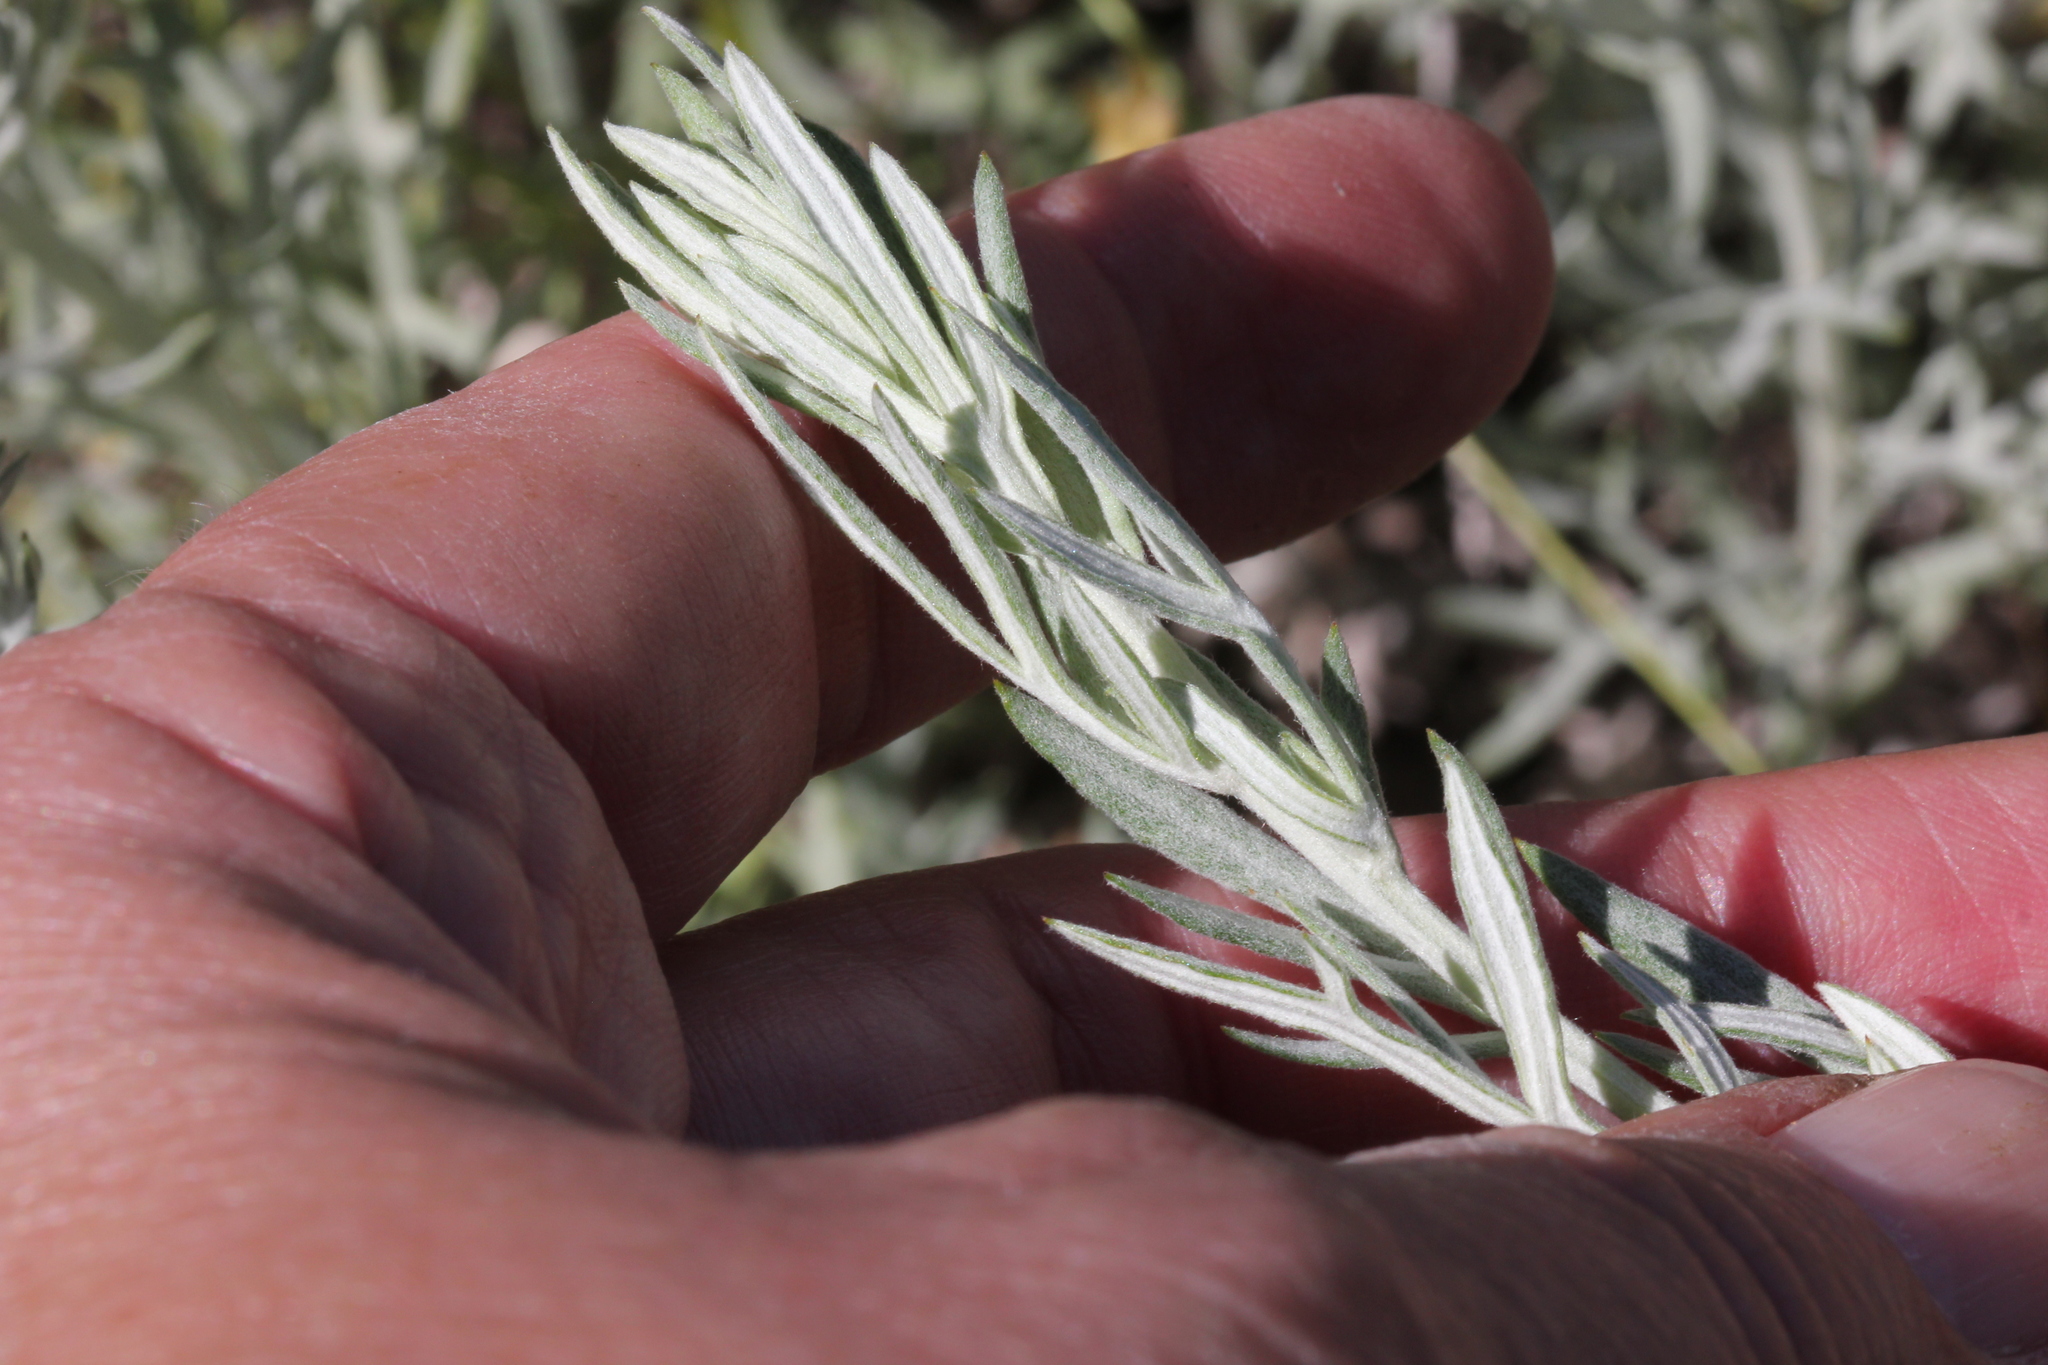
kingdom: Plantae
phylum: Tracheophyta
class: Magnoliopsida
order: Asterales
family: Asteraceae
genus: Artemisia
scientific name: Artemisia ludoviciana
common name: Western mugwort
